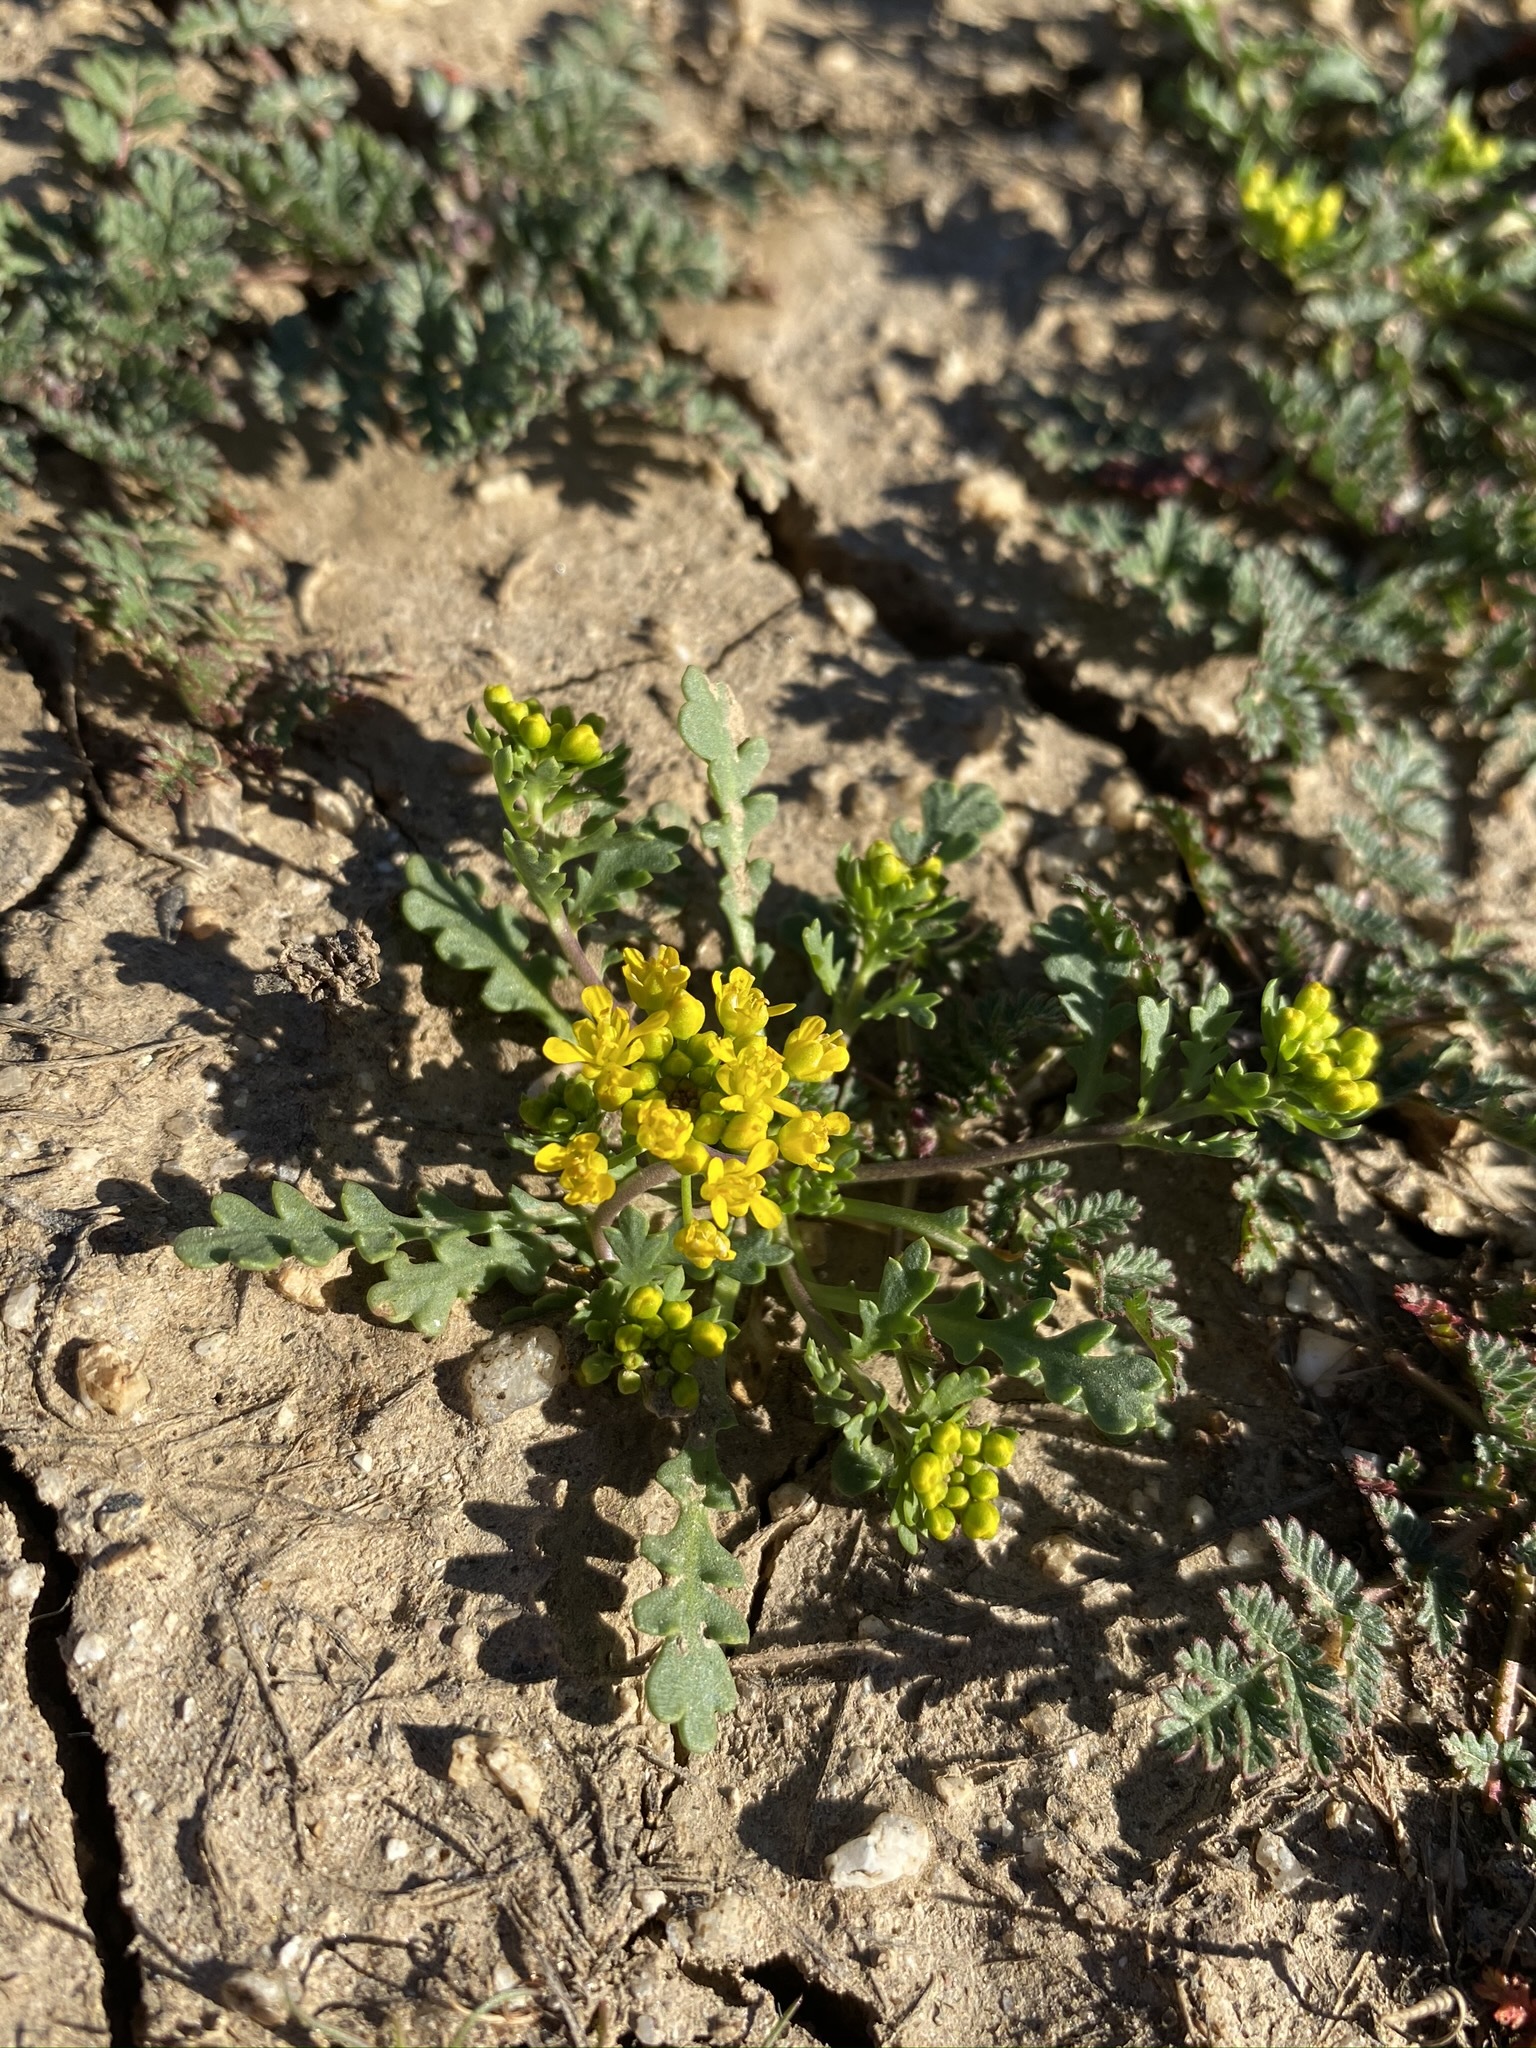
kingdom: Plantae
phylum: Tracheophyta
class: Magnoliopsida
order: Brassicales
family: Brassicaceae
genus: Lepidium
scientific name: Lepidium flavum
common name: Yellow pepperwort
